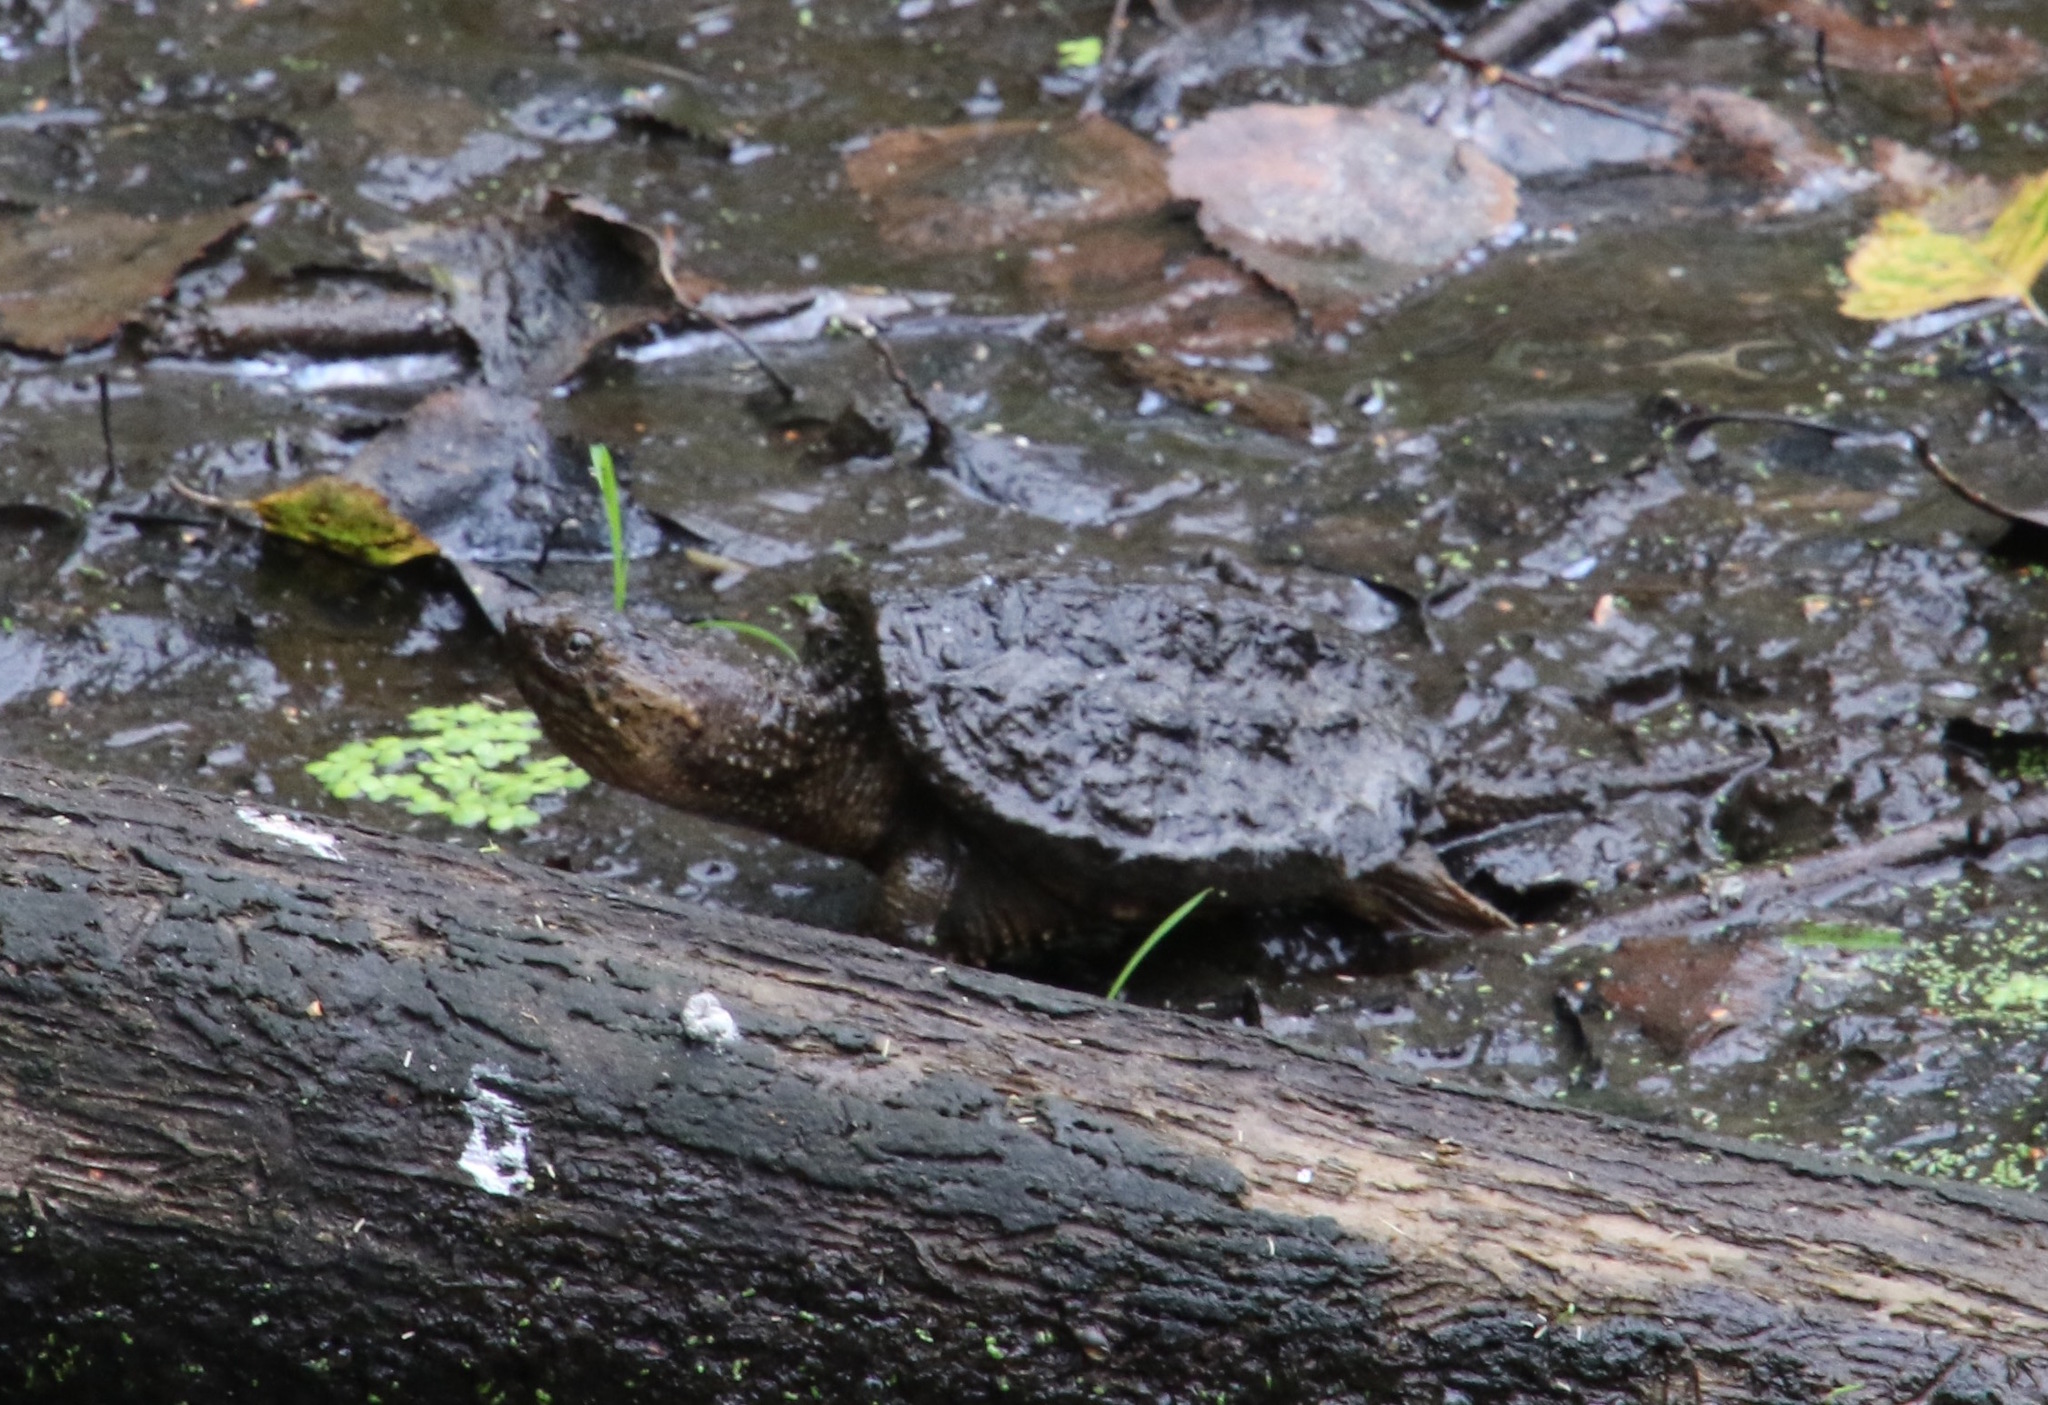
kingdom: Animalia
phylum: Chordata
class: Testudines
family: Chelydridae
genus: Chelydra
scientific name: Chelydra serpentina
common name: Common snapping turtle
